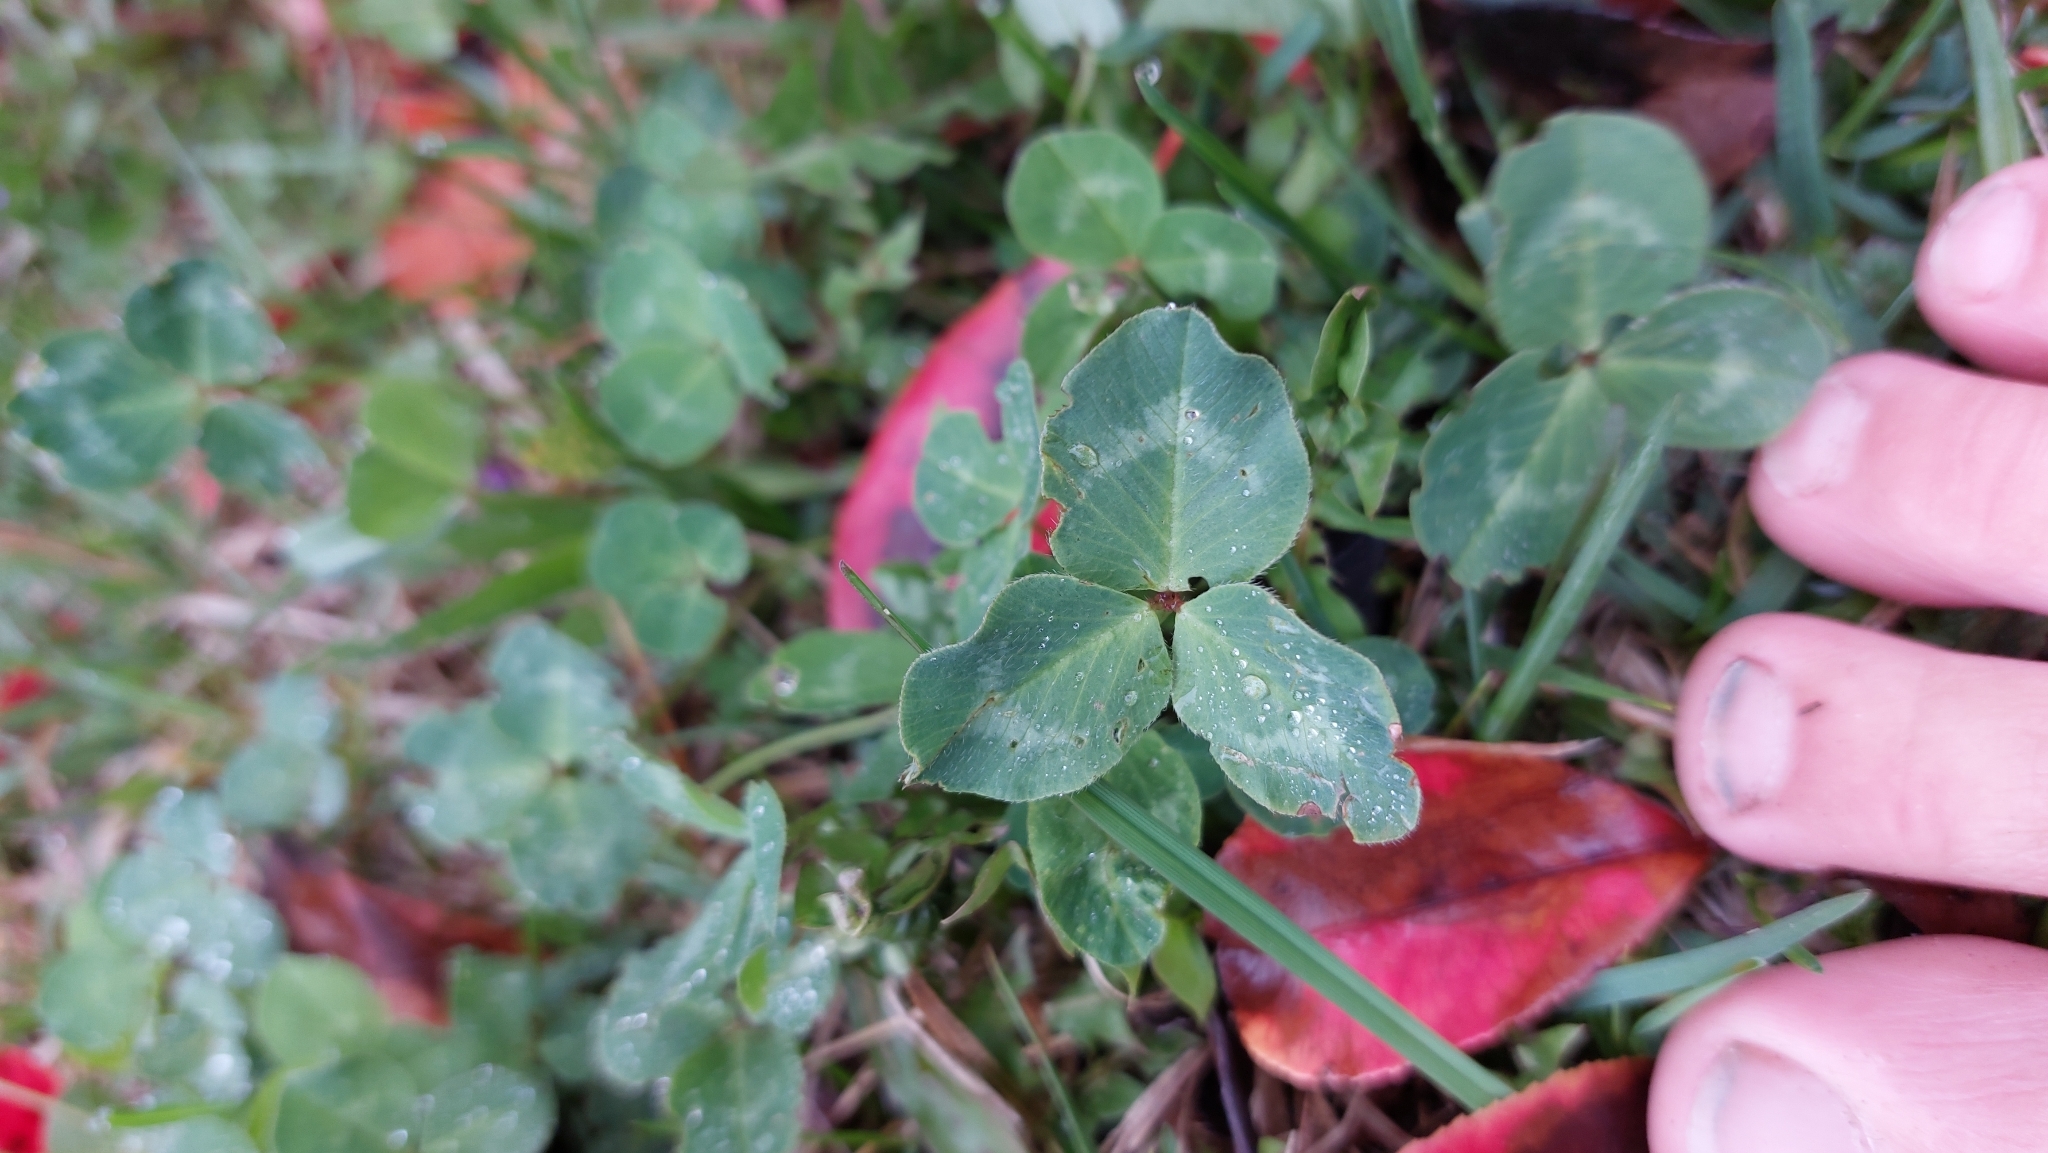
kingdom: Plantae
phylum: Tracheophyta
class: Magnoliopsida
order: Fabales
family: Fabaceae
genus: Trifolium
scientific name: Trifolium pratense
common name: Red clover
